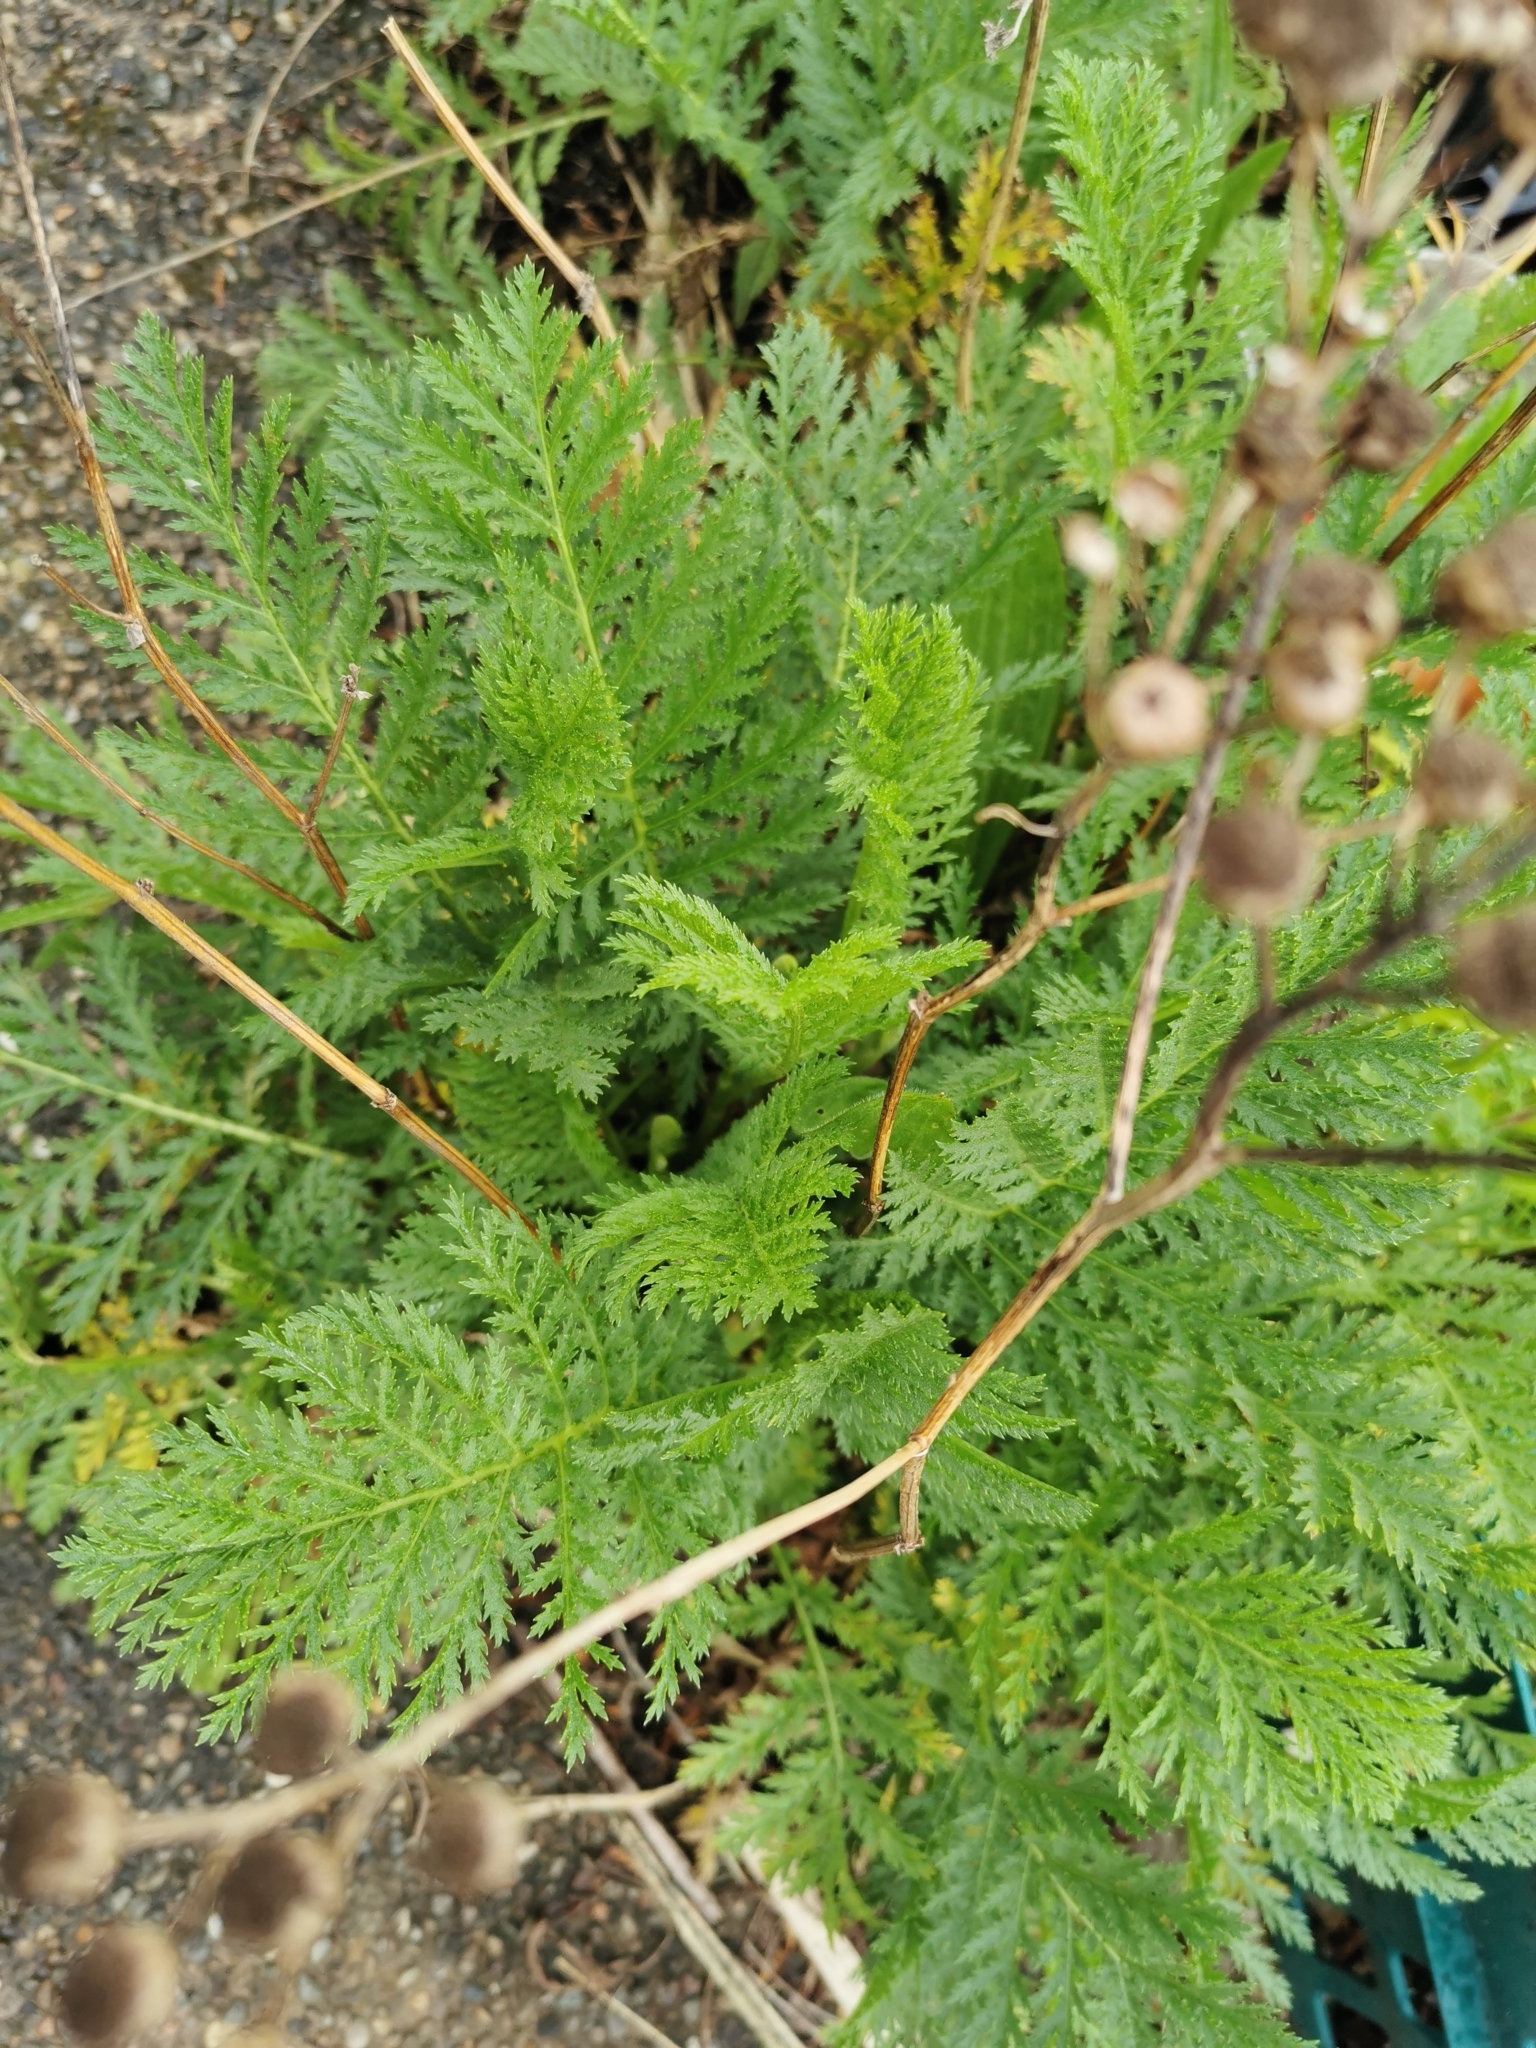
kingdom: Plantae
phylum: Tracheophyta
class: Magnoliopsida
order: Asterales
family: Asteraceae
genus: Tanacetum
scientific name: Tanacetum vulgare
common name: Common tansy
